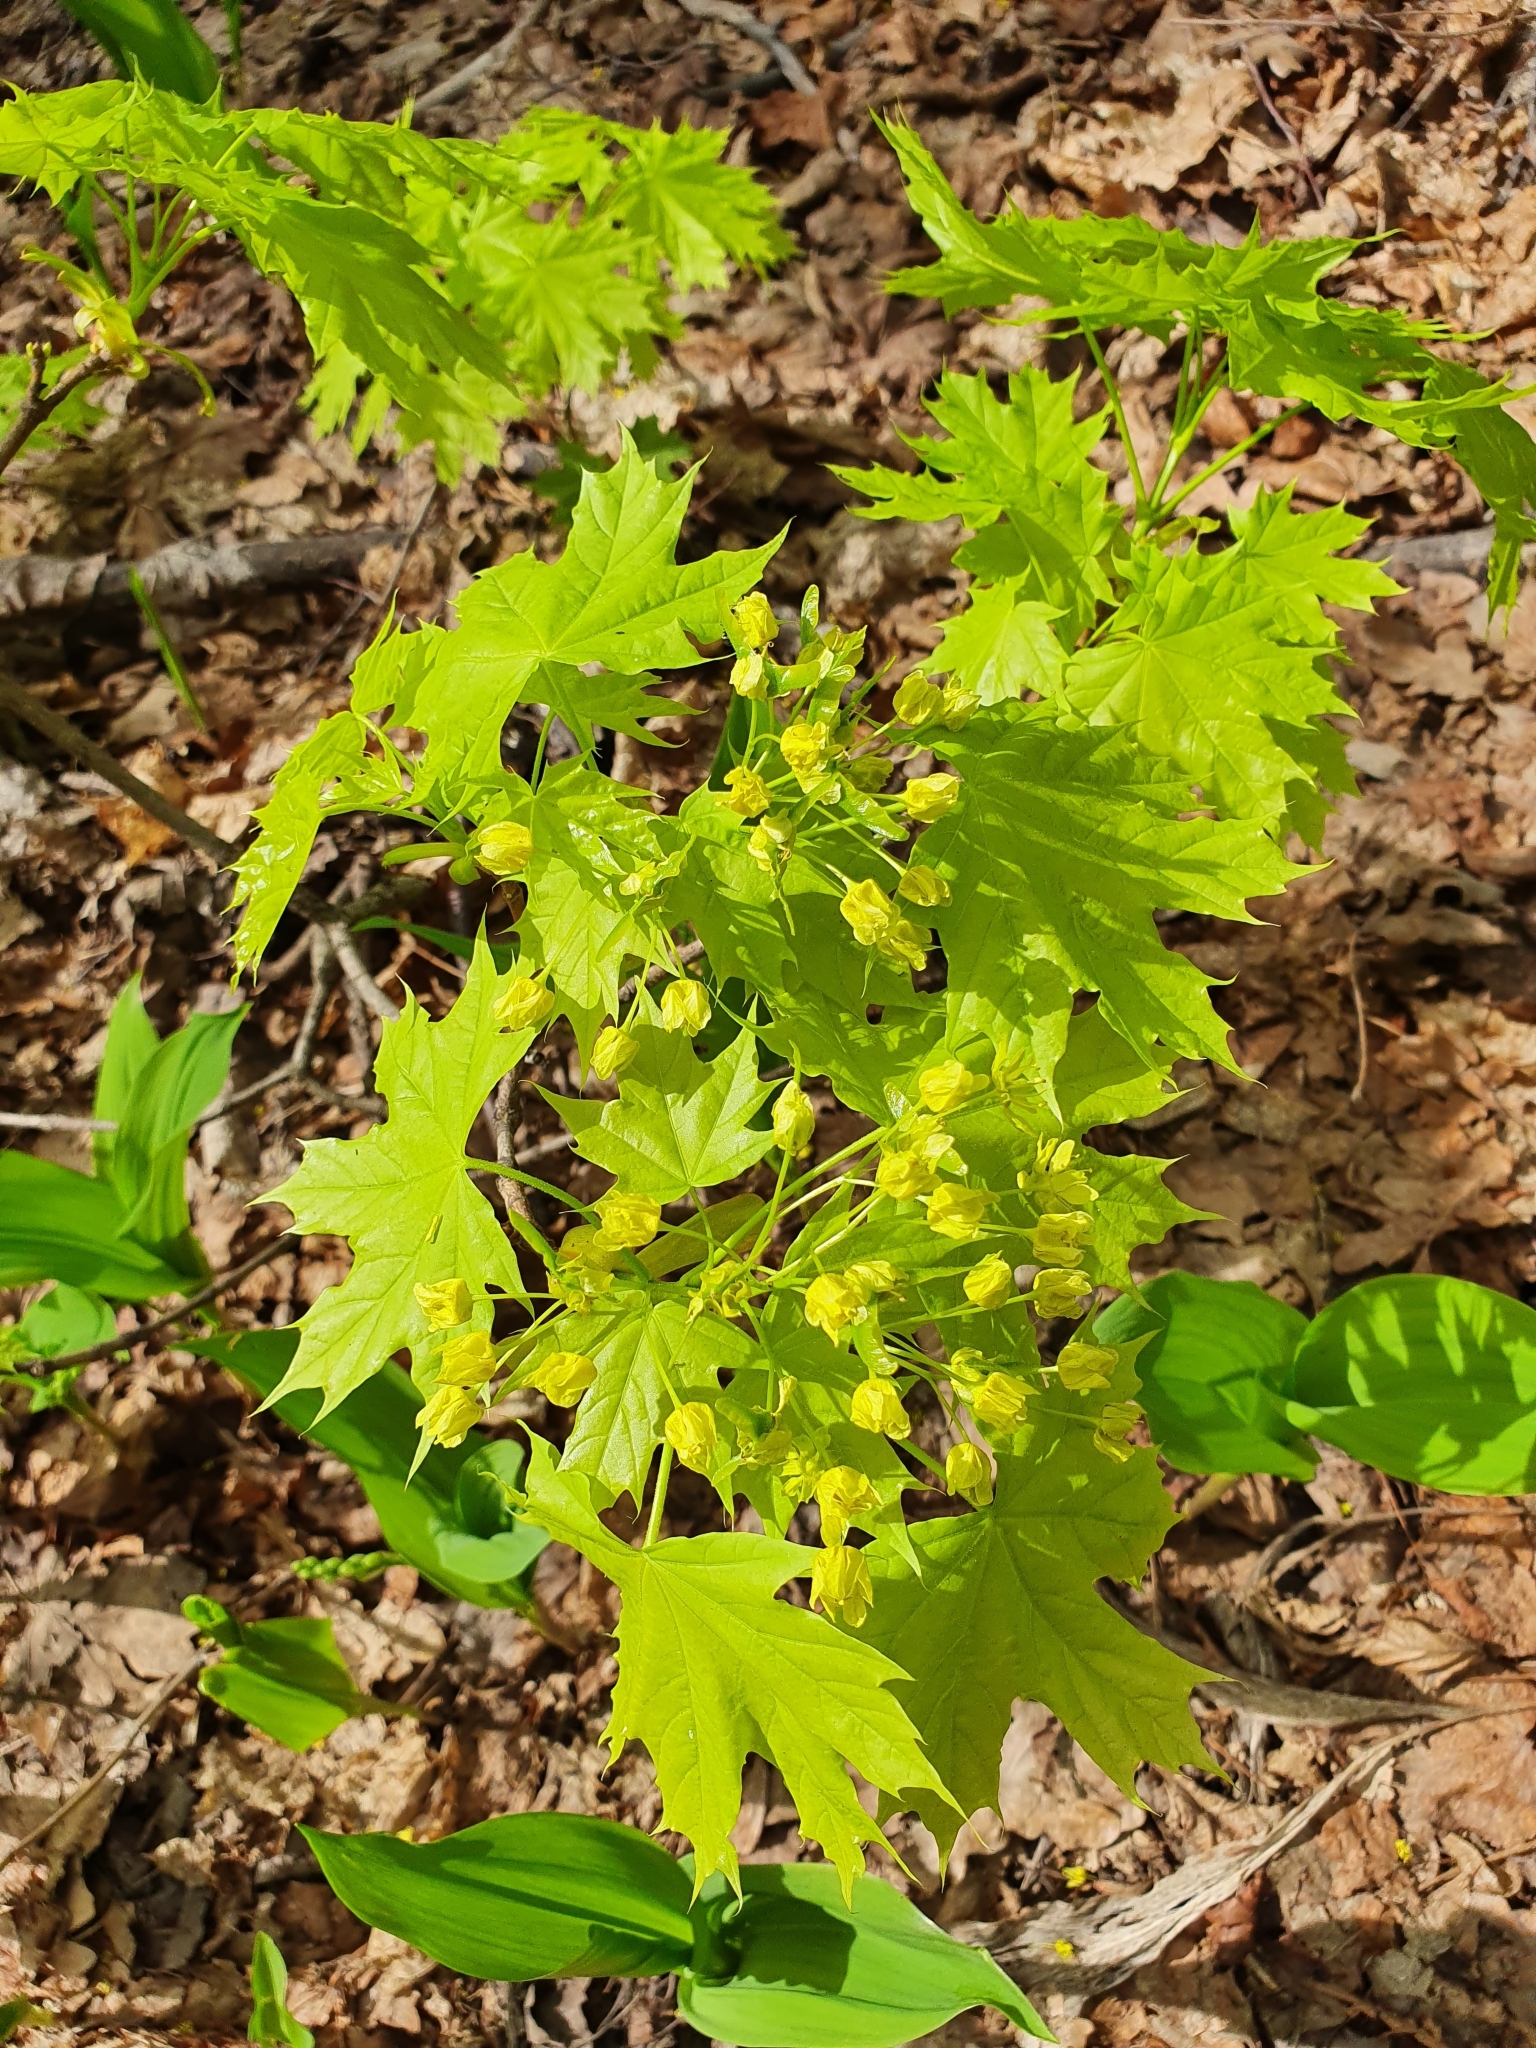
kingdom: Plantae
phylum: Tracheophyta
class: Magnoliopsida
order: Sapindales
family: Sapindaceae
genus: Acer
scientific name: Acer platanoides
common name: Norway maple
